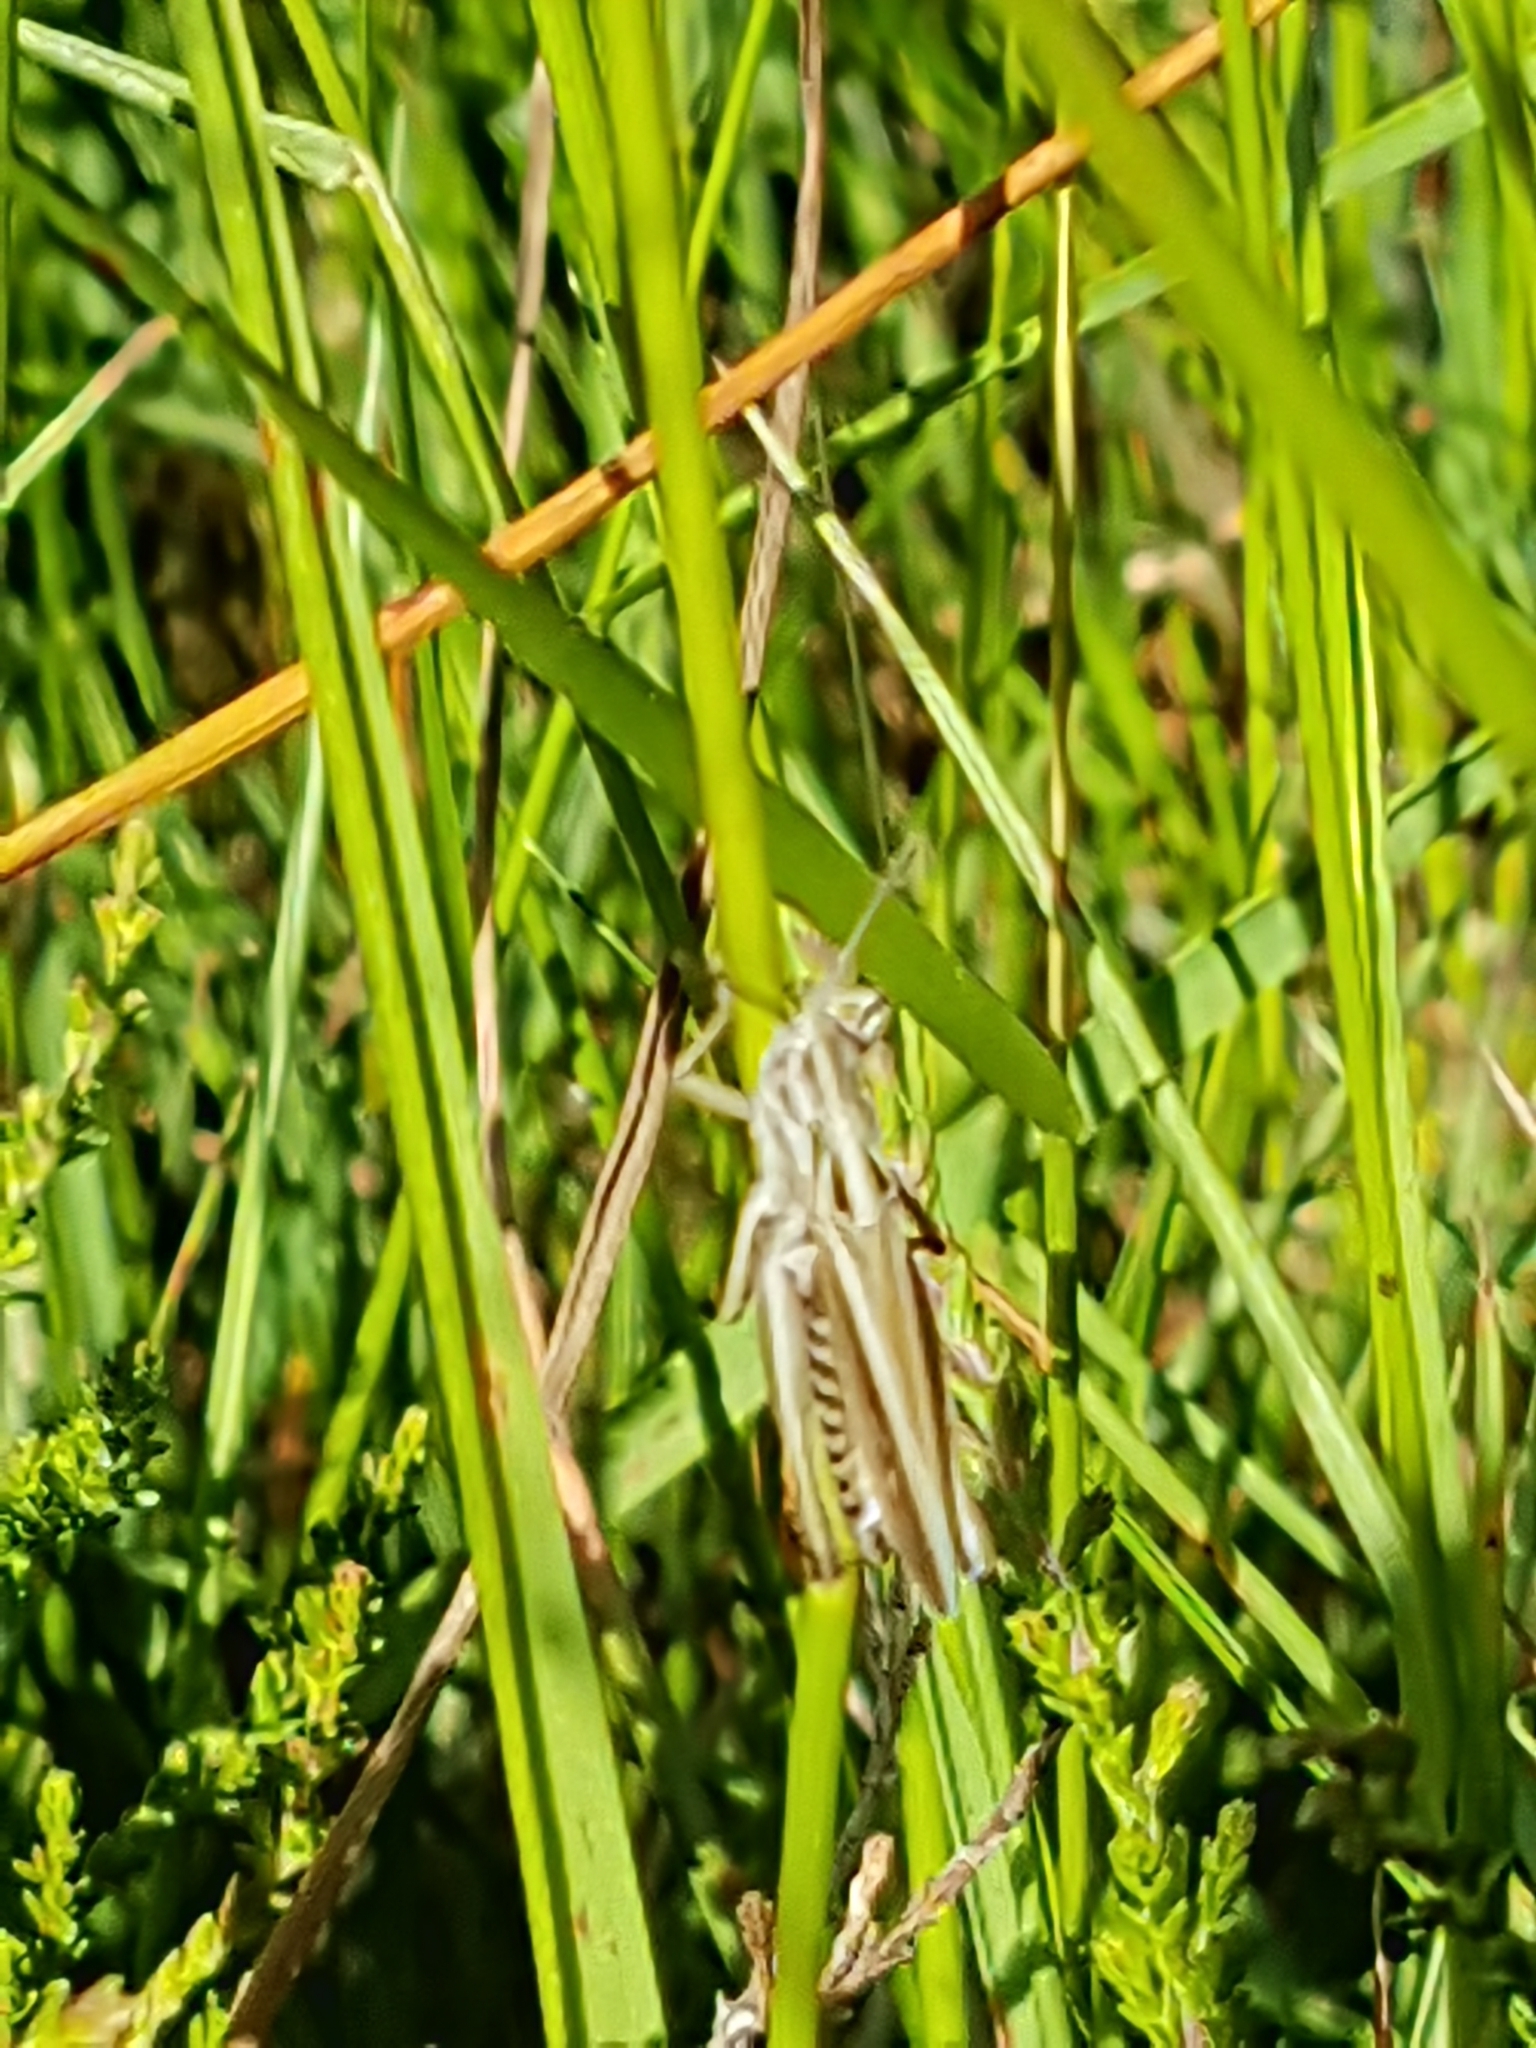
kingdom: Animalia
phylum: Arthropoda
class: Insecta
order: Orthoptera
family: Acrididae
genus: Chorthippus
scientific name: Chorthippus brunneus
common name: Field grasshopper
